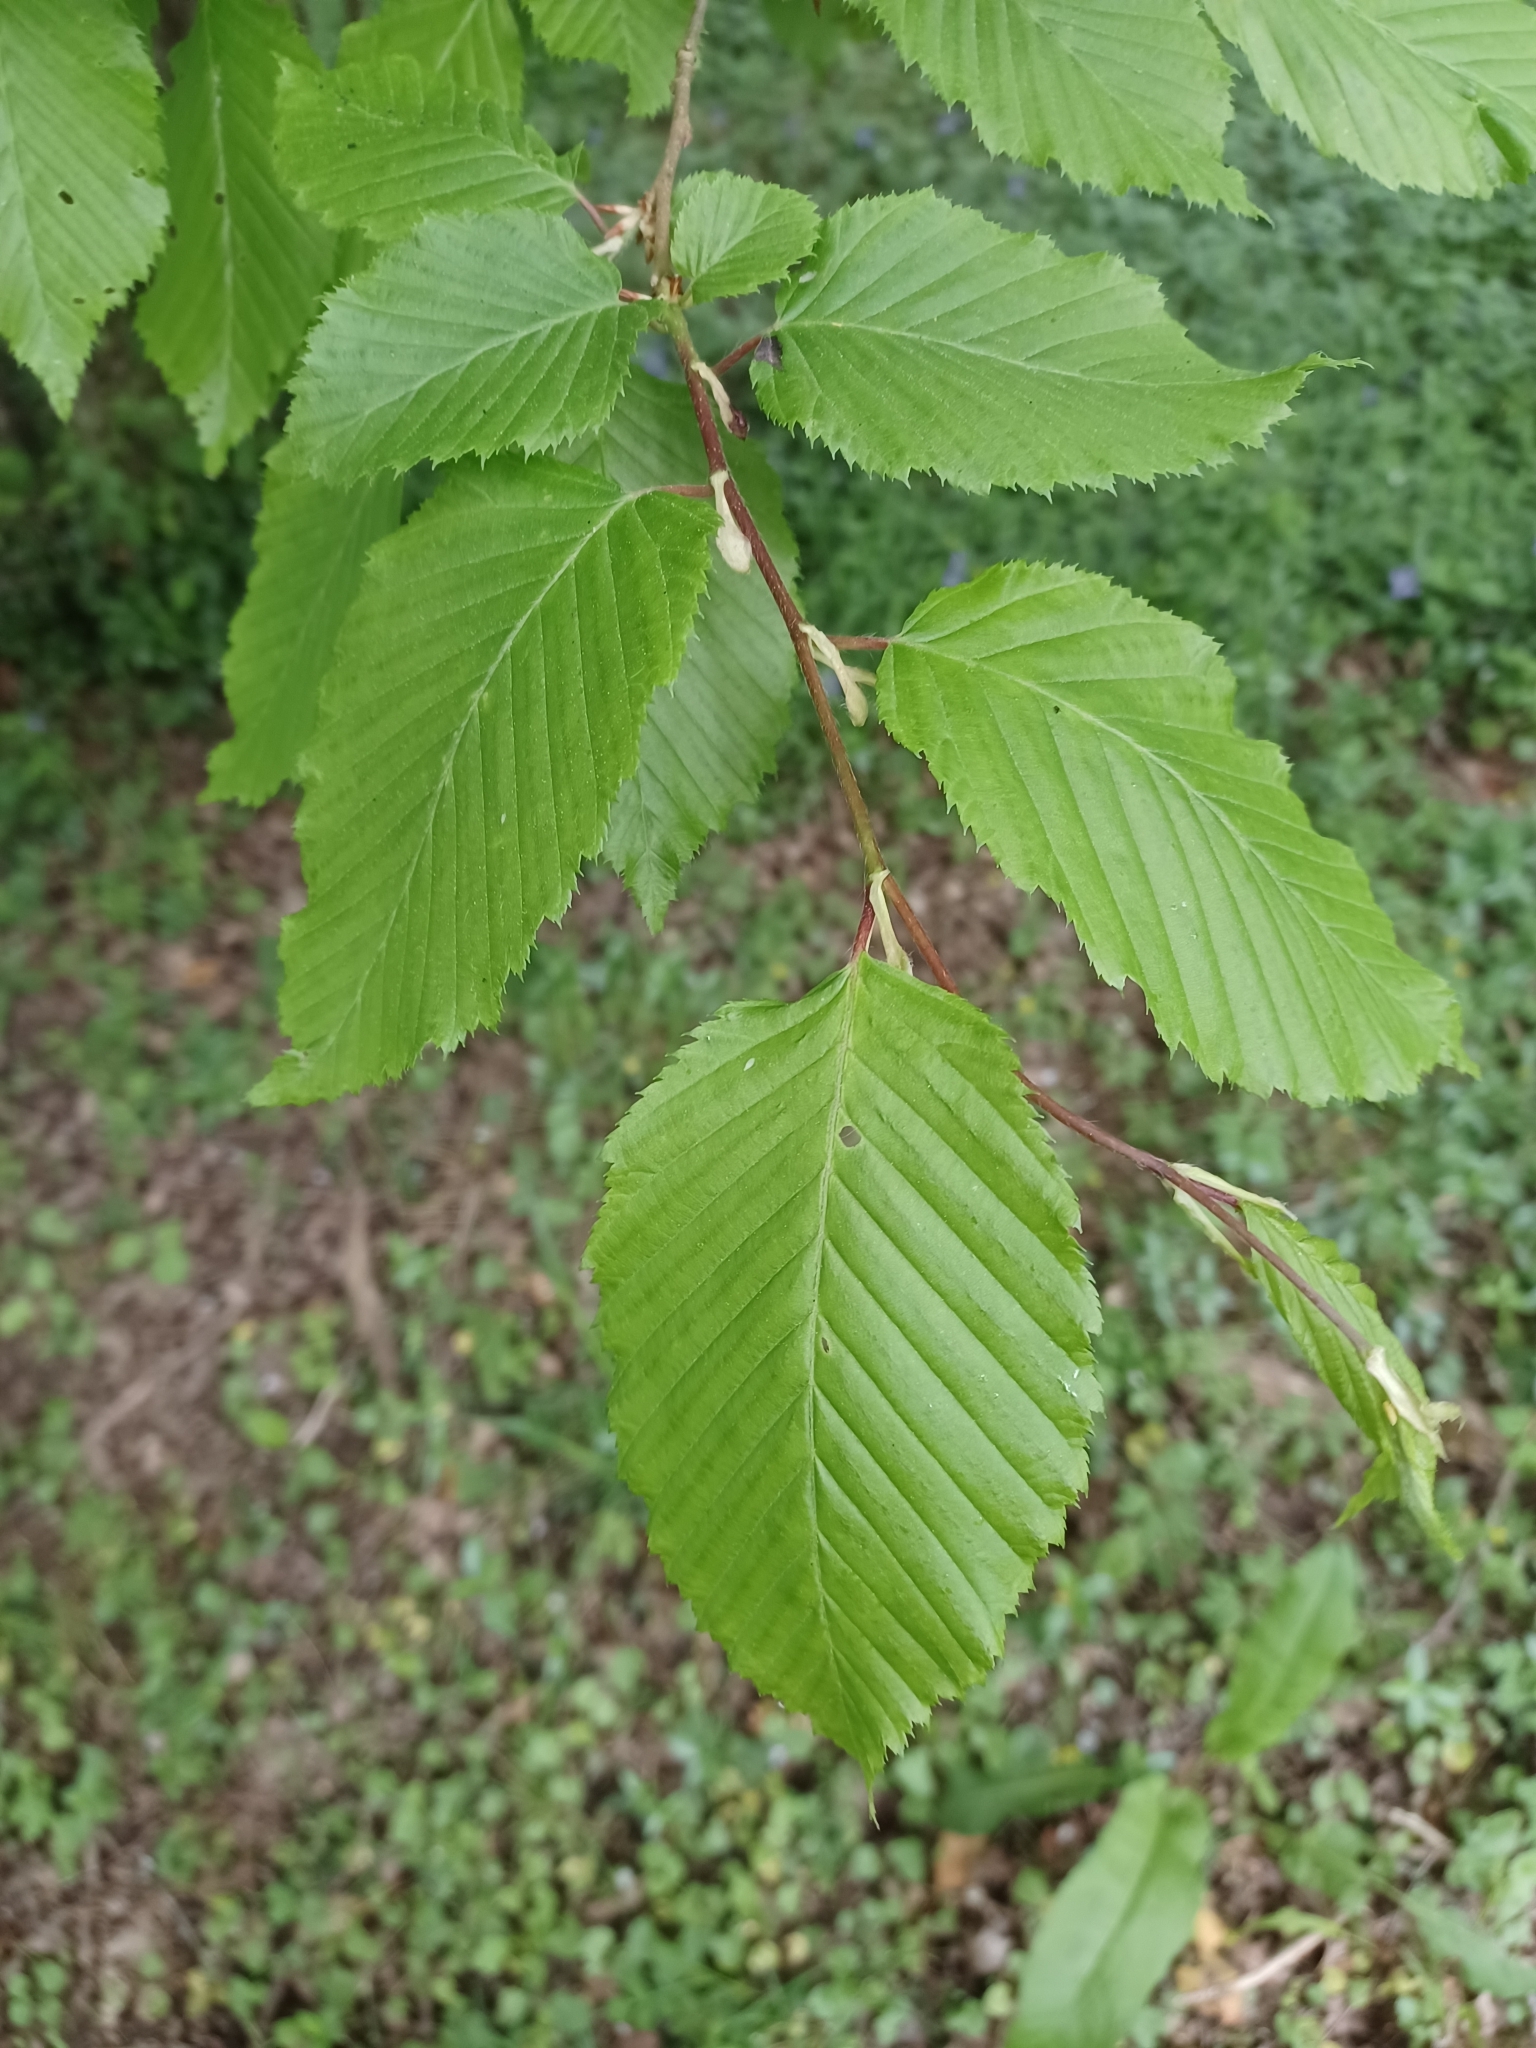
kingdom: Plantae
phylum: Tracheophyta
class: Magnoliopsida
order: Fagales
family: Betulaceae
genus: Carpinus
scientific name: Carpinus betulus
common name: Hornbeam
